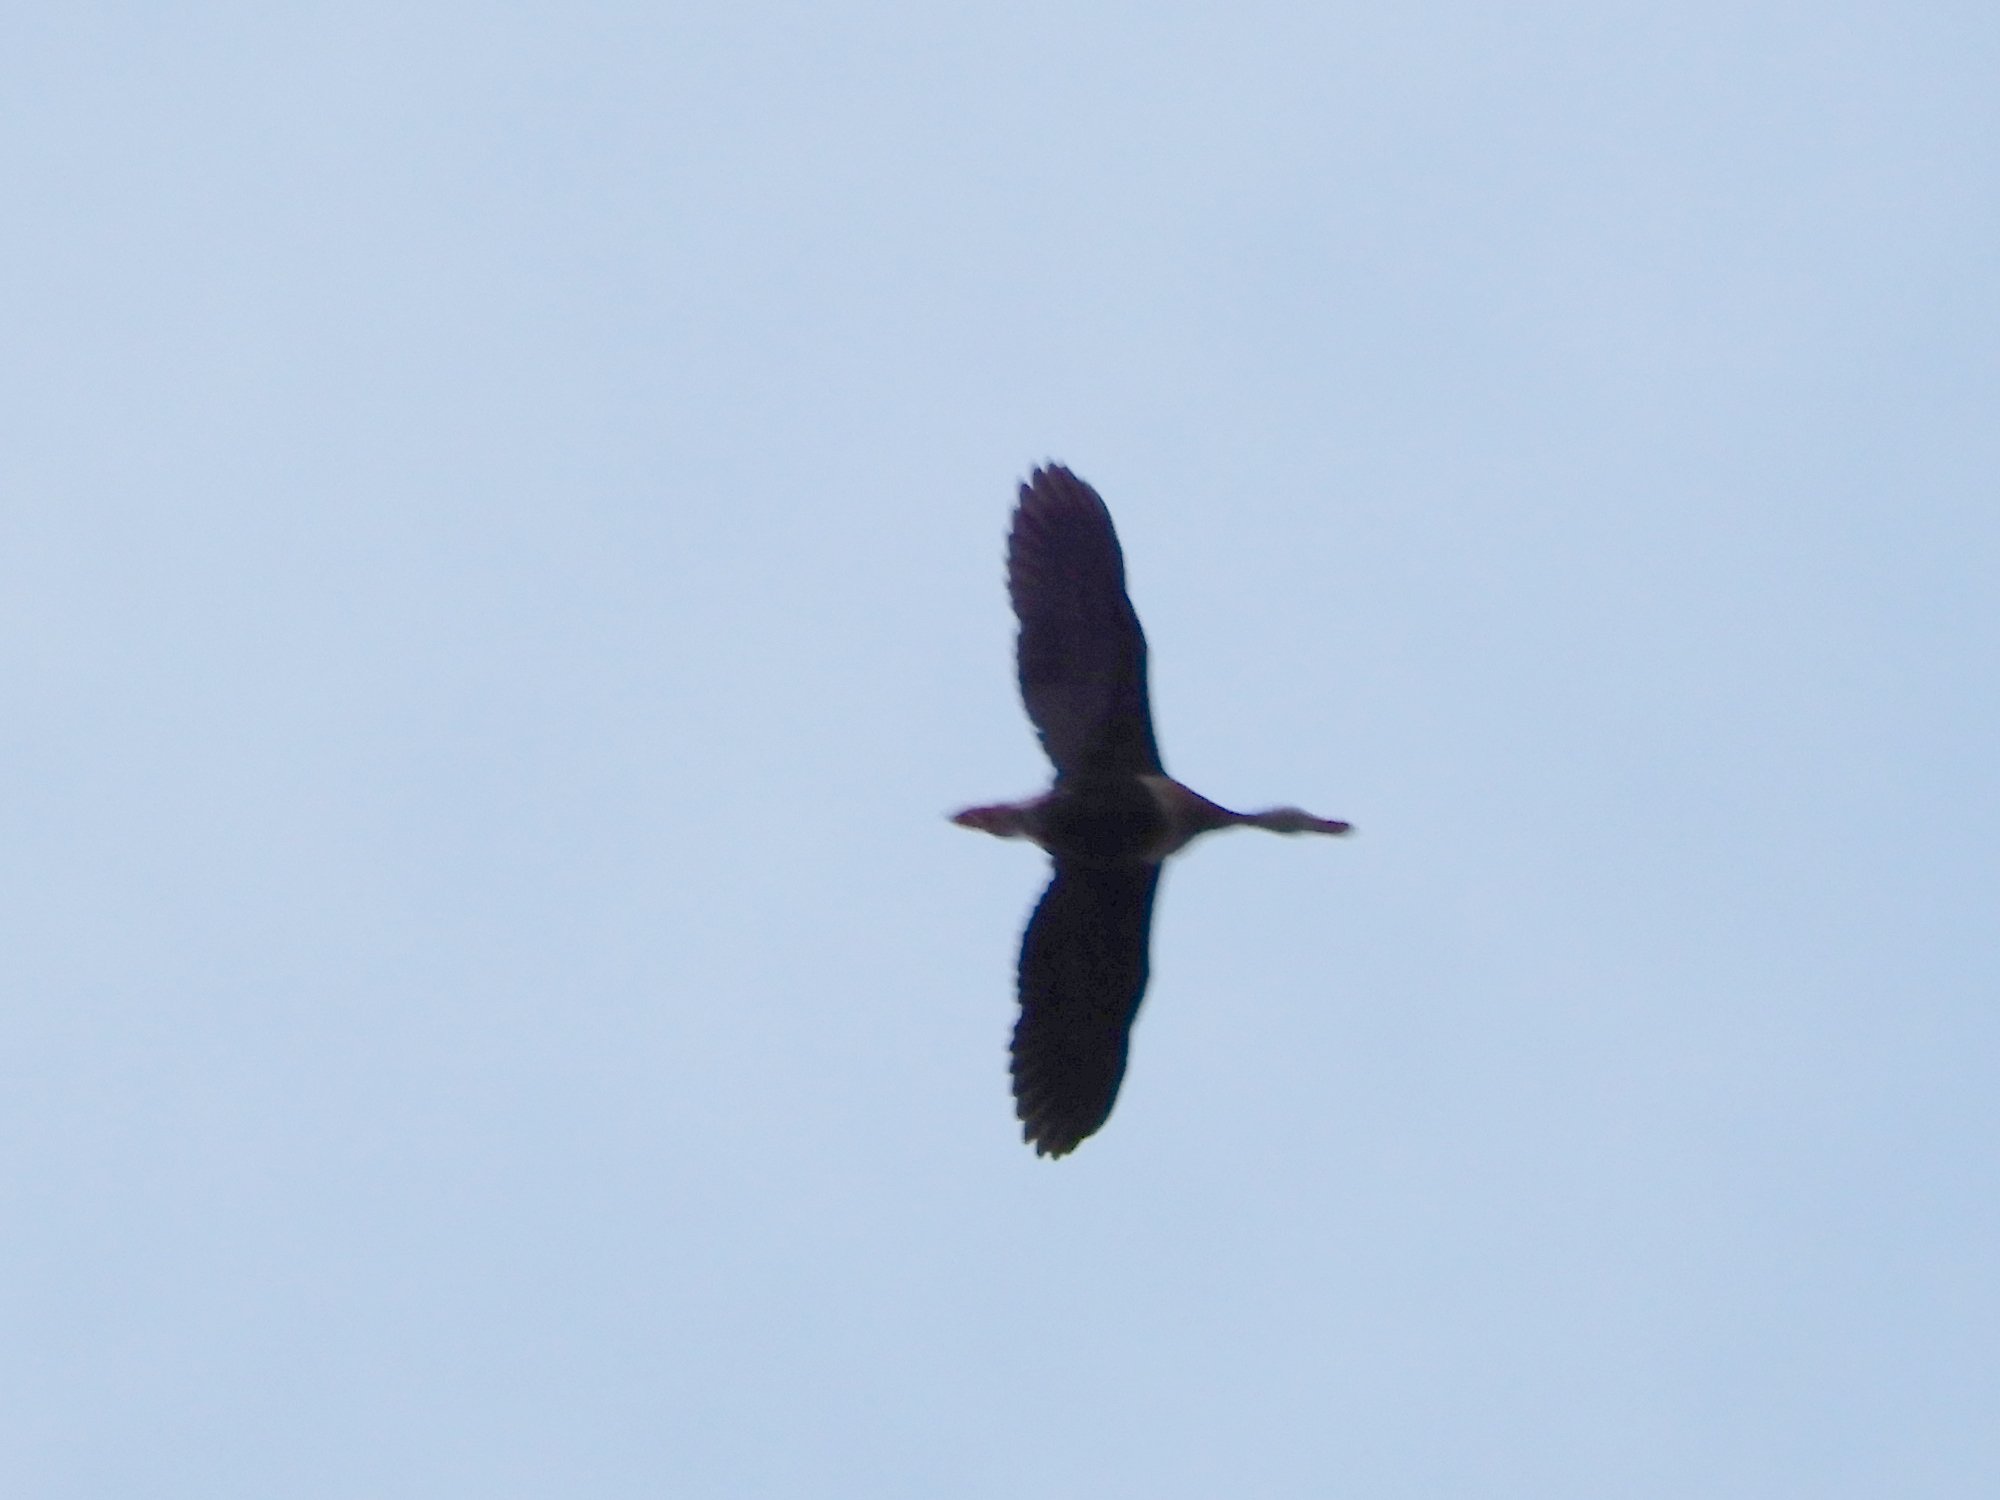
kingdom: Animalia
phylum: Chordata
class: Aves
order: Anseriformes
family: Anatidae
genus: Dendrocygna
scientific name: Dendrocygna autumnalis
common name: Black-bellied whistling duck
